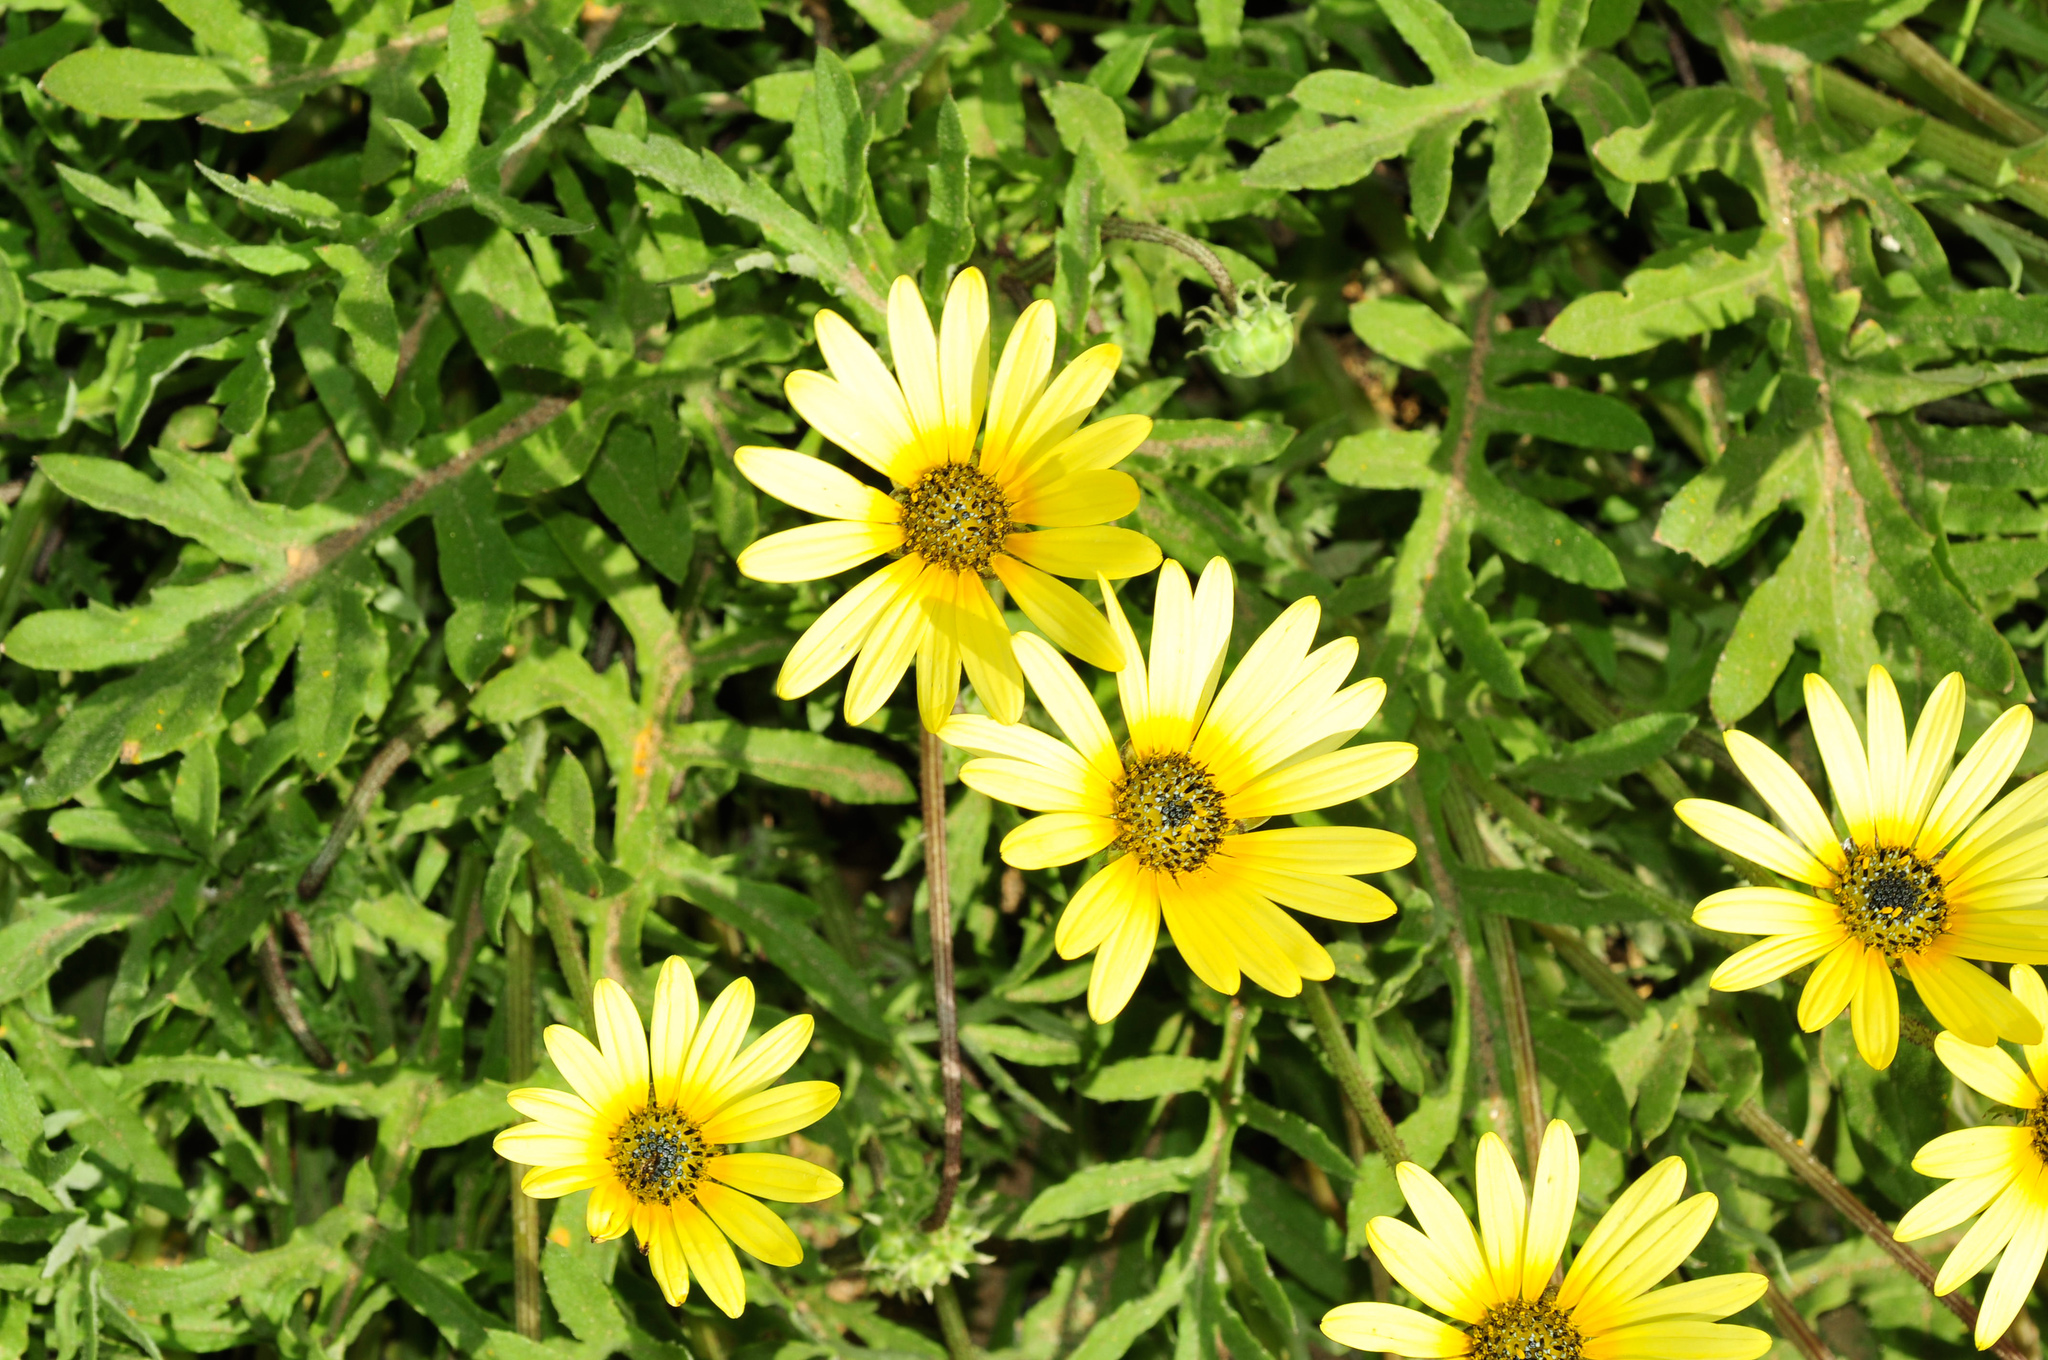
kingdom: Plantae
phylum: Tracheophyta
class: Magnoliopsida
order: Asterales
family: Asteraceae
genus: Arctotheca
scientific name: Arctotheca calendula
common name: Capeweed
